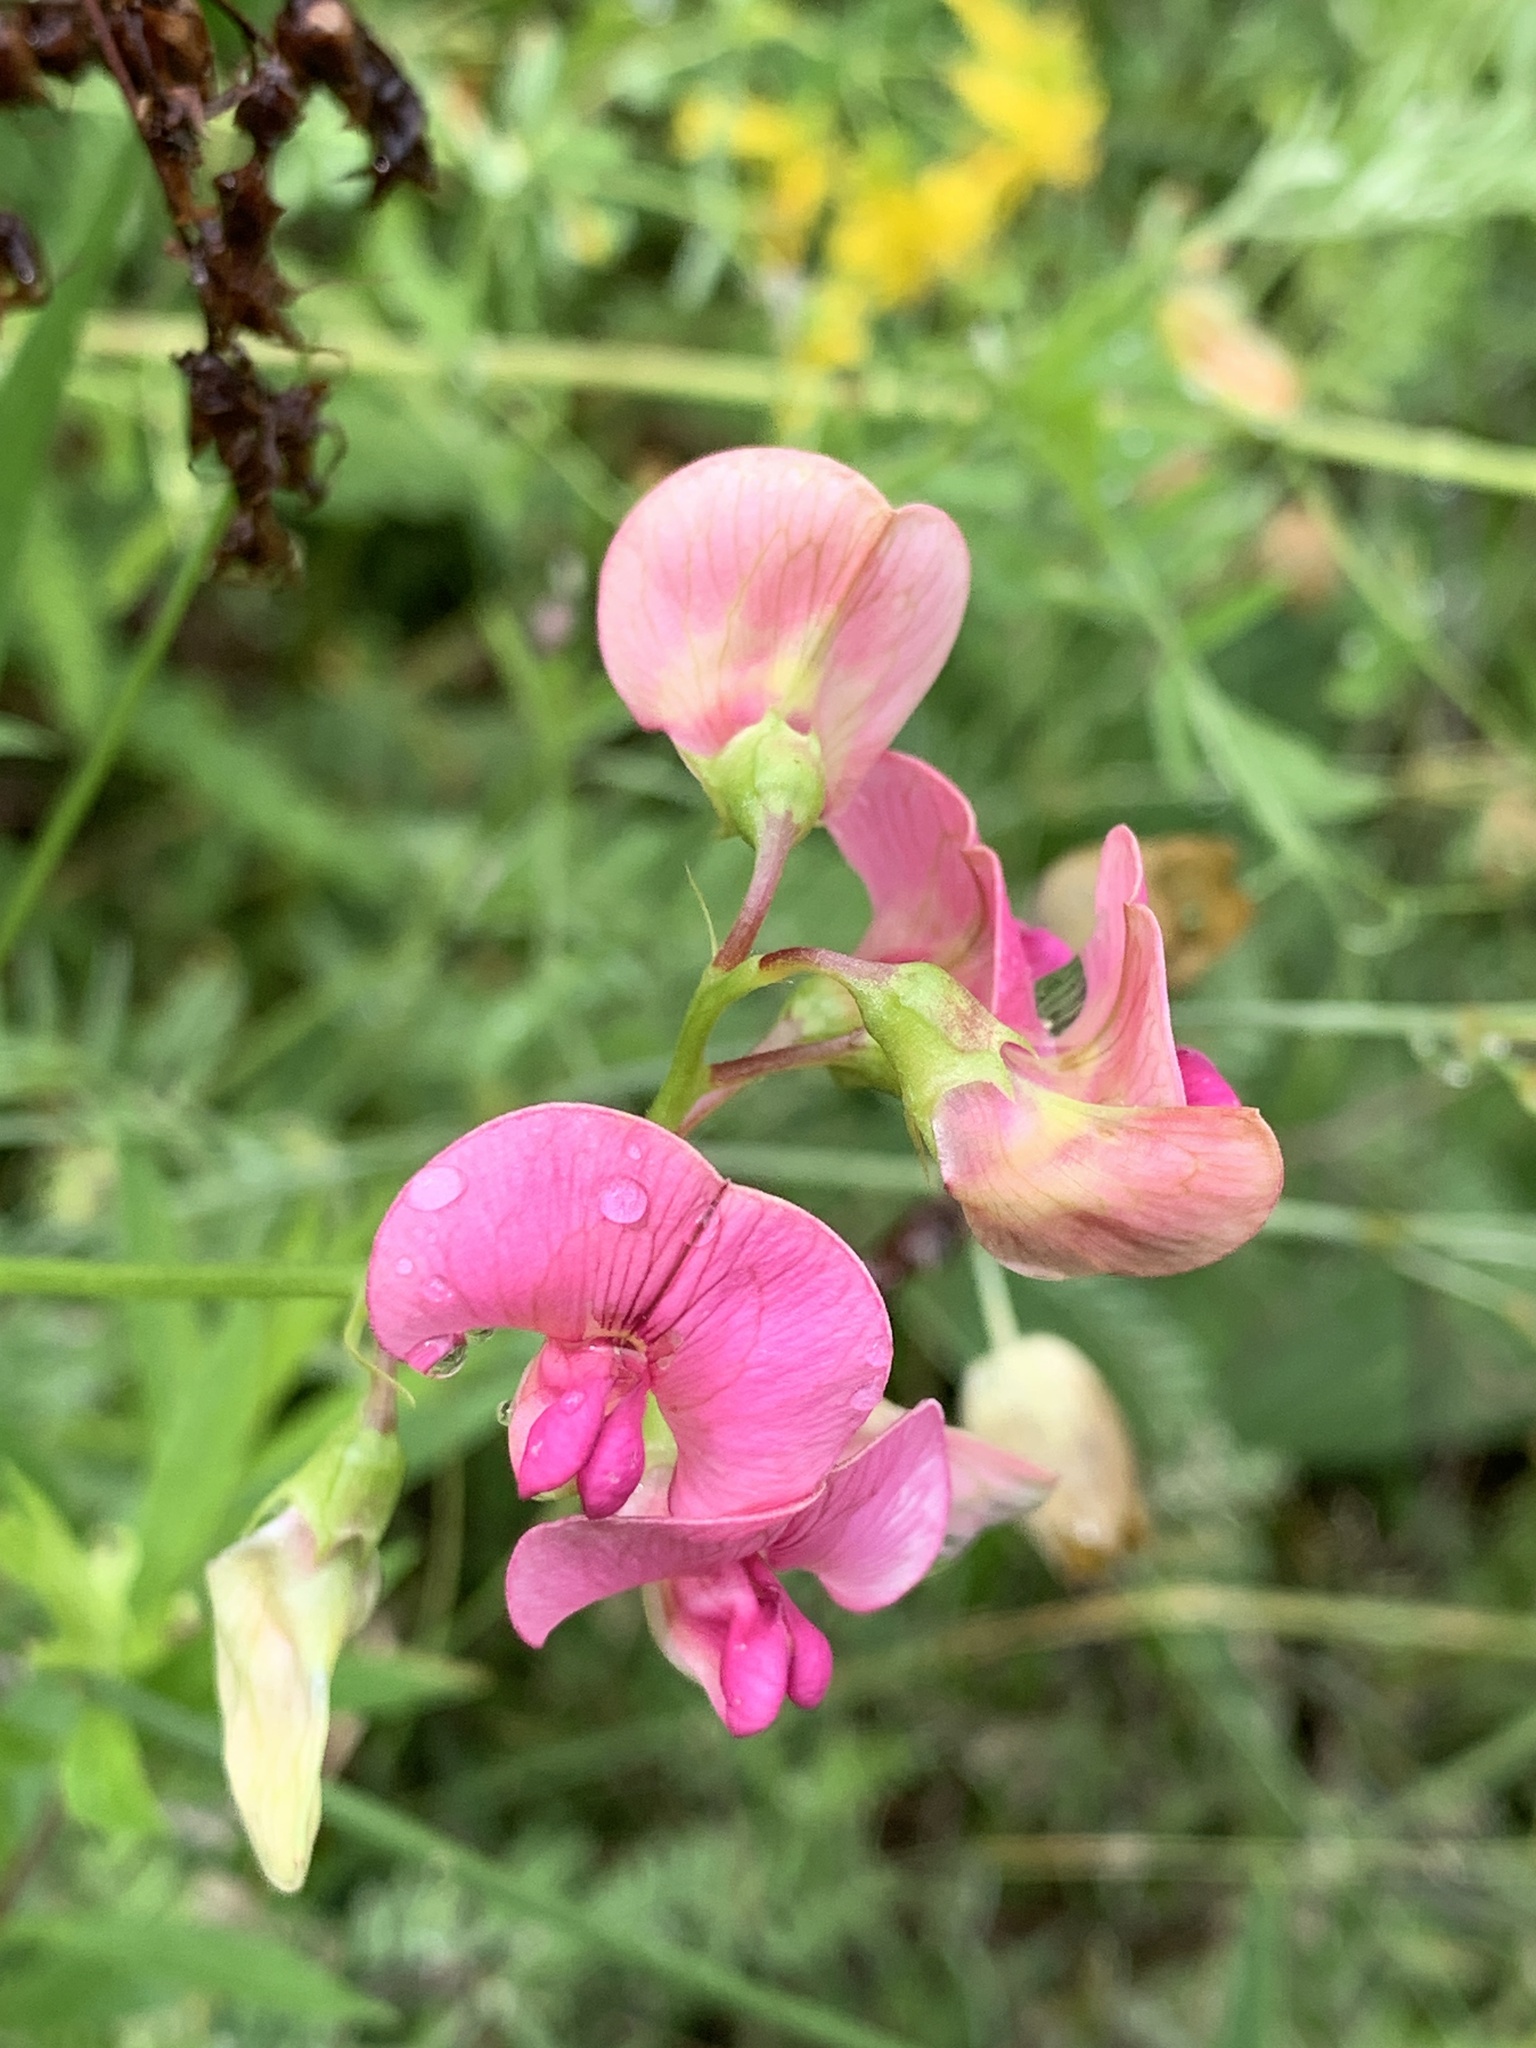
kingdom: Plantae
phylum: Tracheophyta
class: Magnoliopsida
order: Fabales
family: Fabaceae
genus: Lathyrus
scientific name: Lathyrus sylvestris
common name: Flat pea
